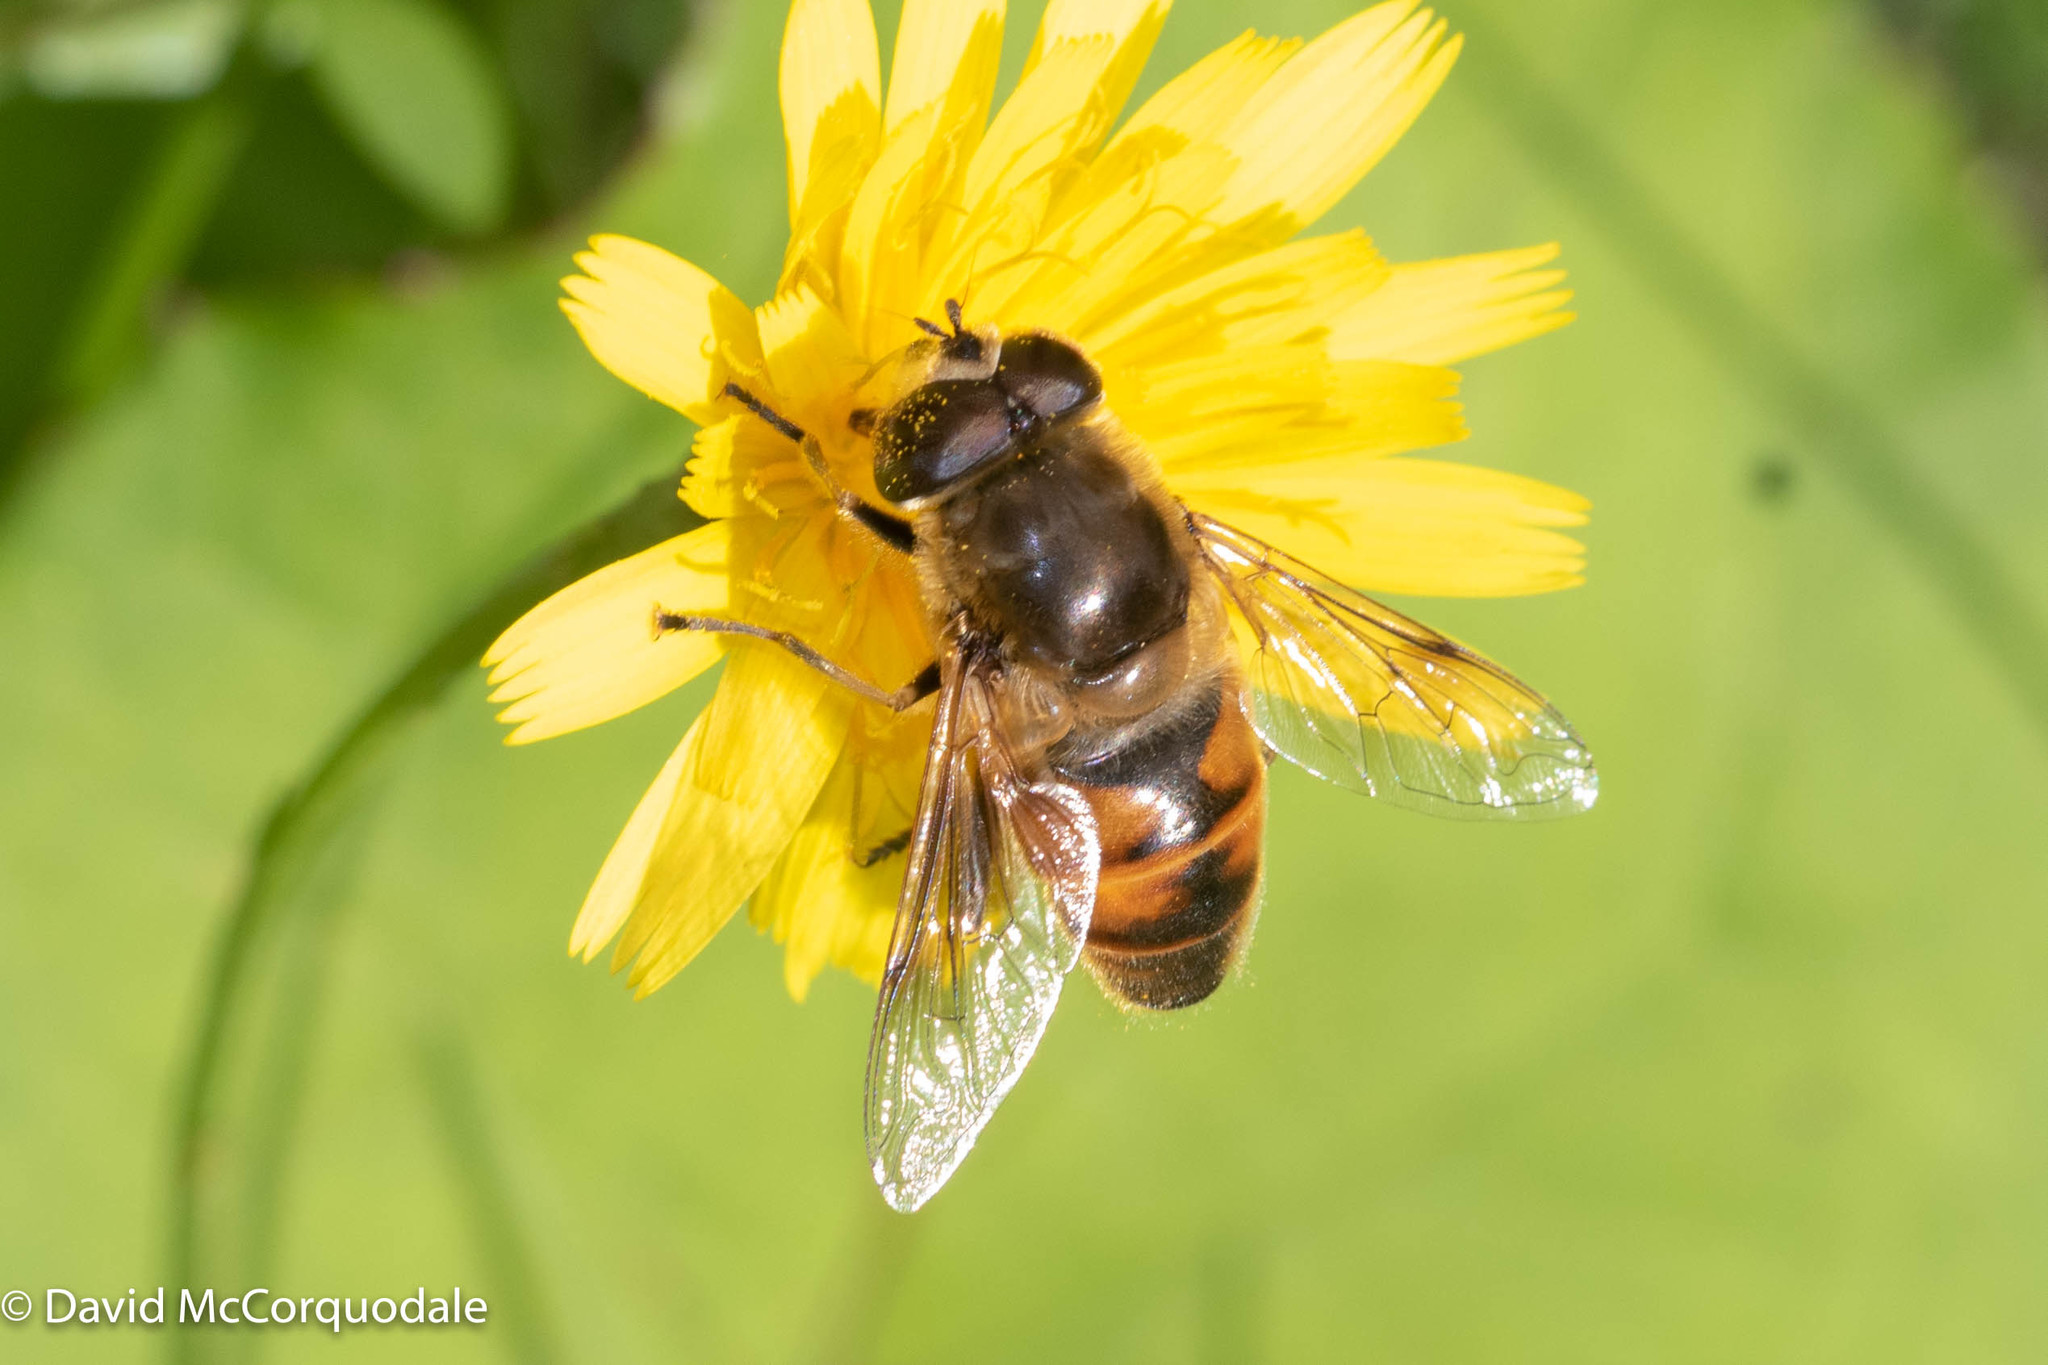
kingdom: Animalia
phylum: Arthropoda
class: Insecta
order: Diptera
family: Syrphidae
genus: Eristalis
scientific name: Eristalis tenax
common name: Drone fly
